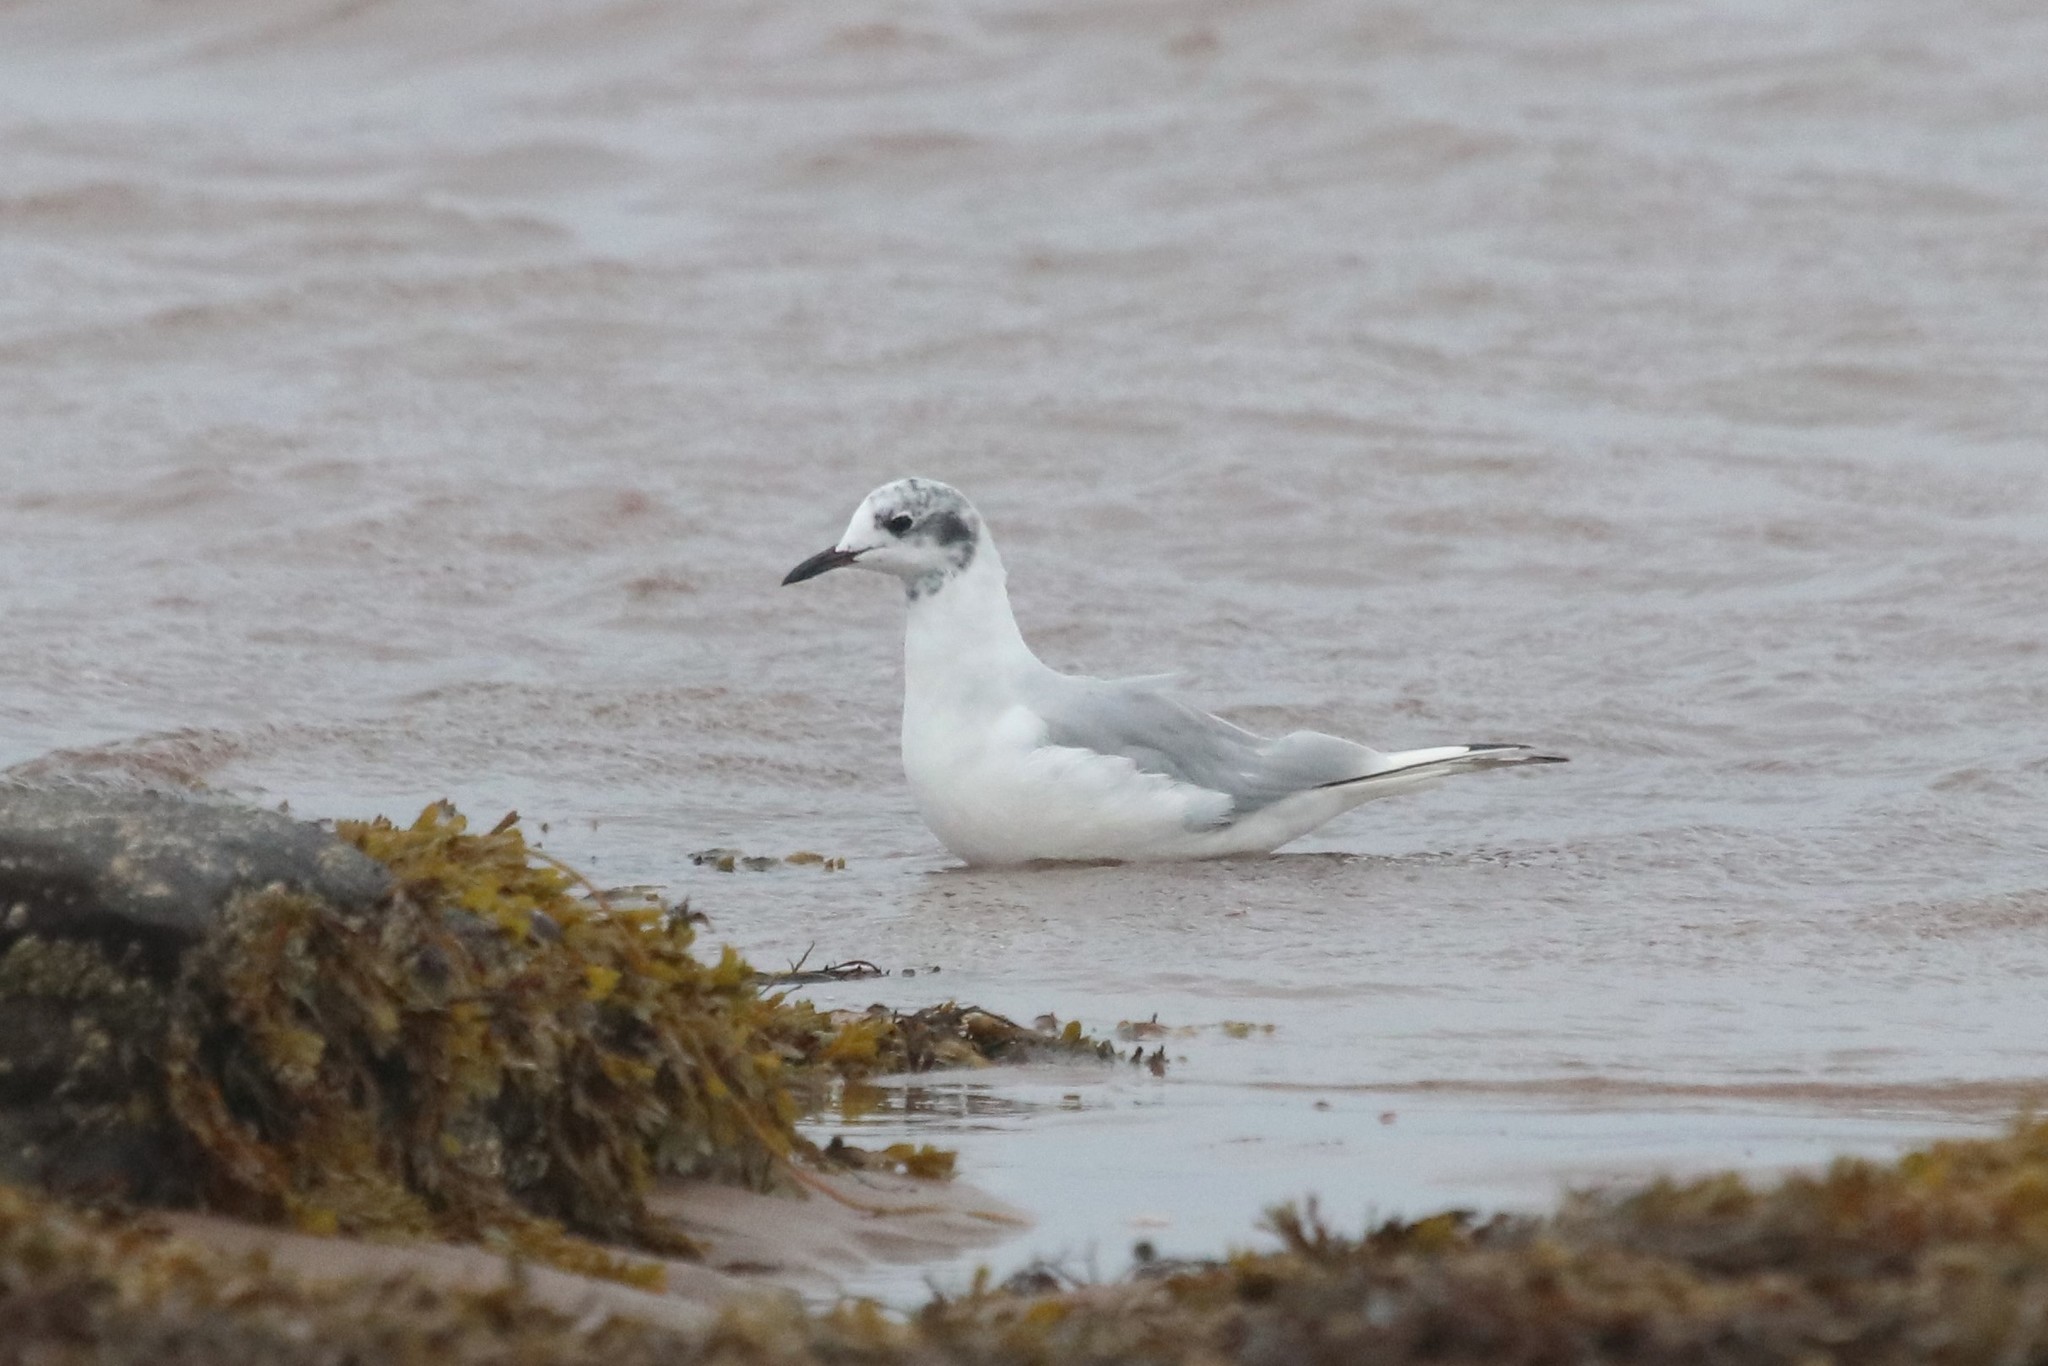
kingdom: Animalia
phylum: Chordata
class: Aves
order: Charadriiformes
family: Laridae
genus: Chroicocephalus
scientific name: Chroicocephalus philadelphia
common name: Bonaparte's gull
